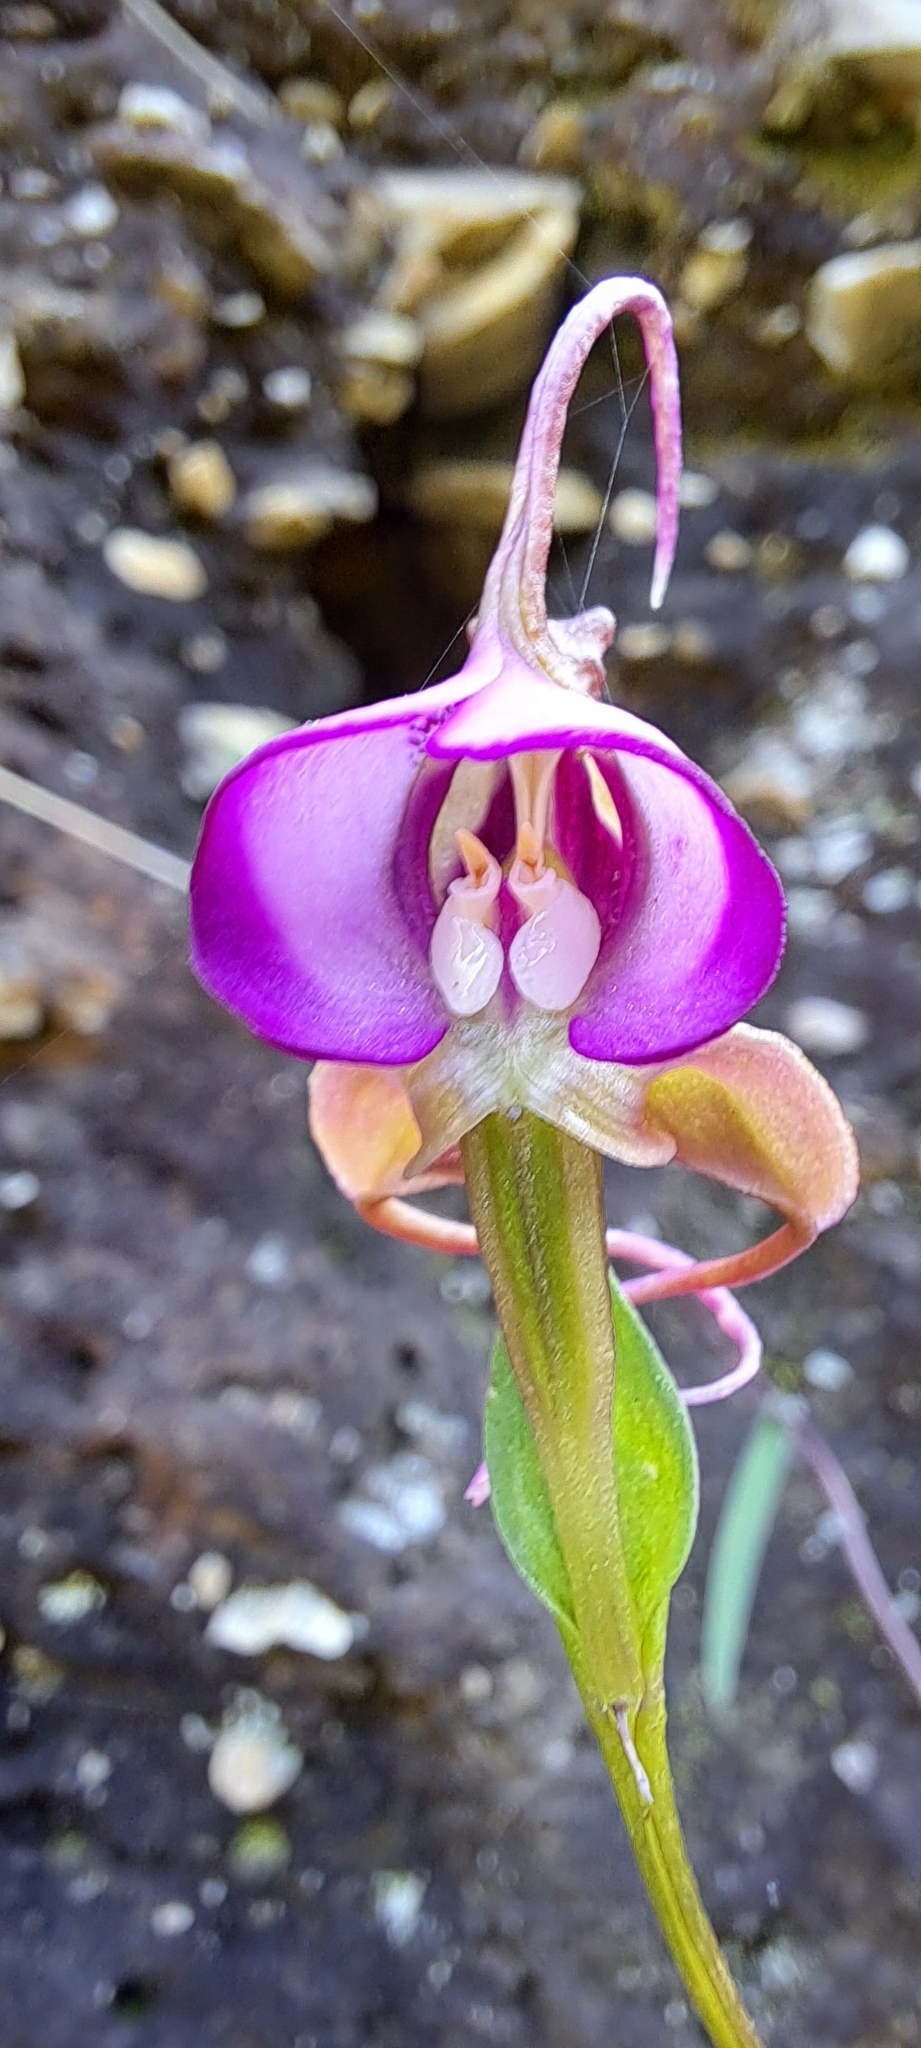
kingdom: Plantae
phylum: Tracheophyta
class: Liliopsida
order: Asparagales
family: Orchidaceae
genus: Disperis
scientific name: Disperis capensis
